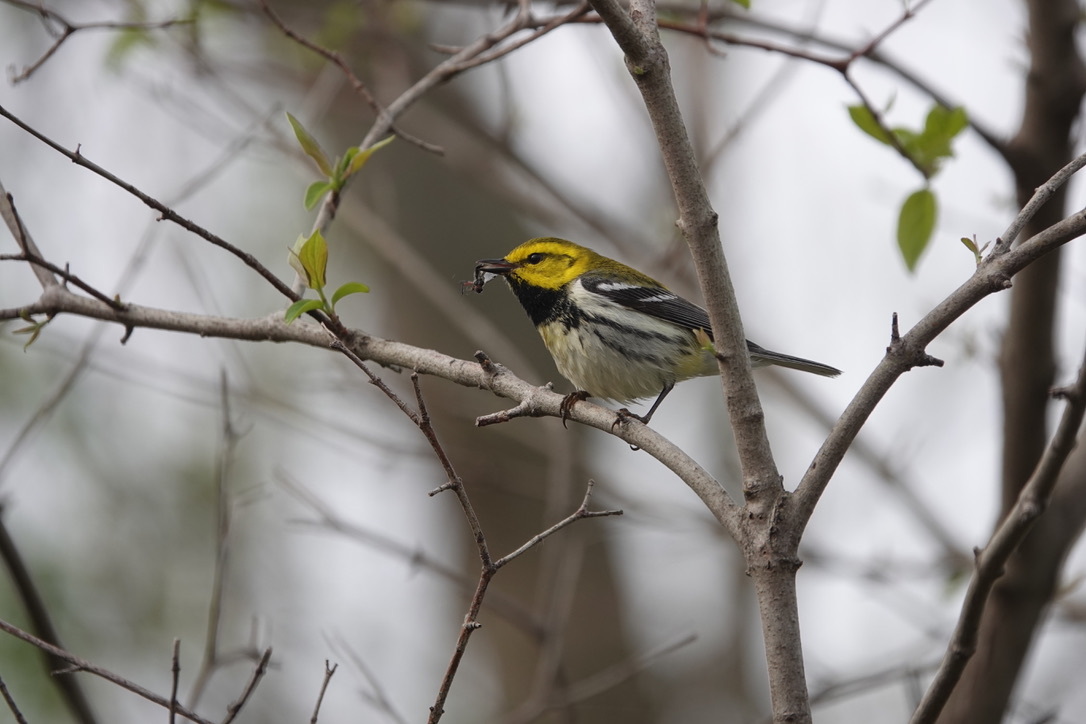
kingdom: Animalia
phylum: Chordata
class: Aves
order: Passeriformes
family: Parulidae
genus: Setophaga
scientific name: Setophaga virens
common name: Black-throated green warbler
